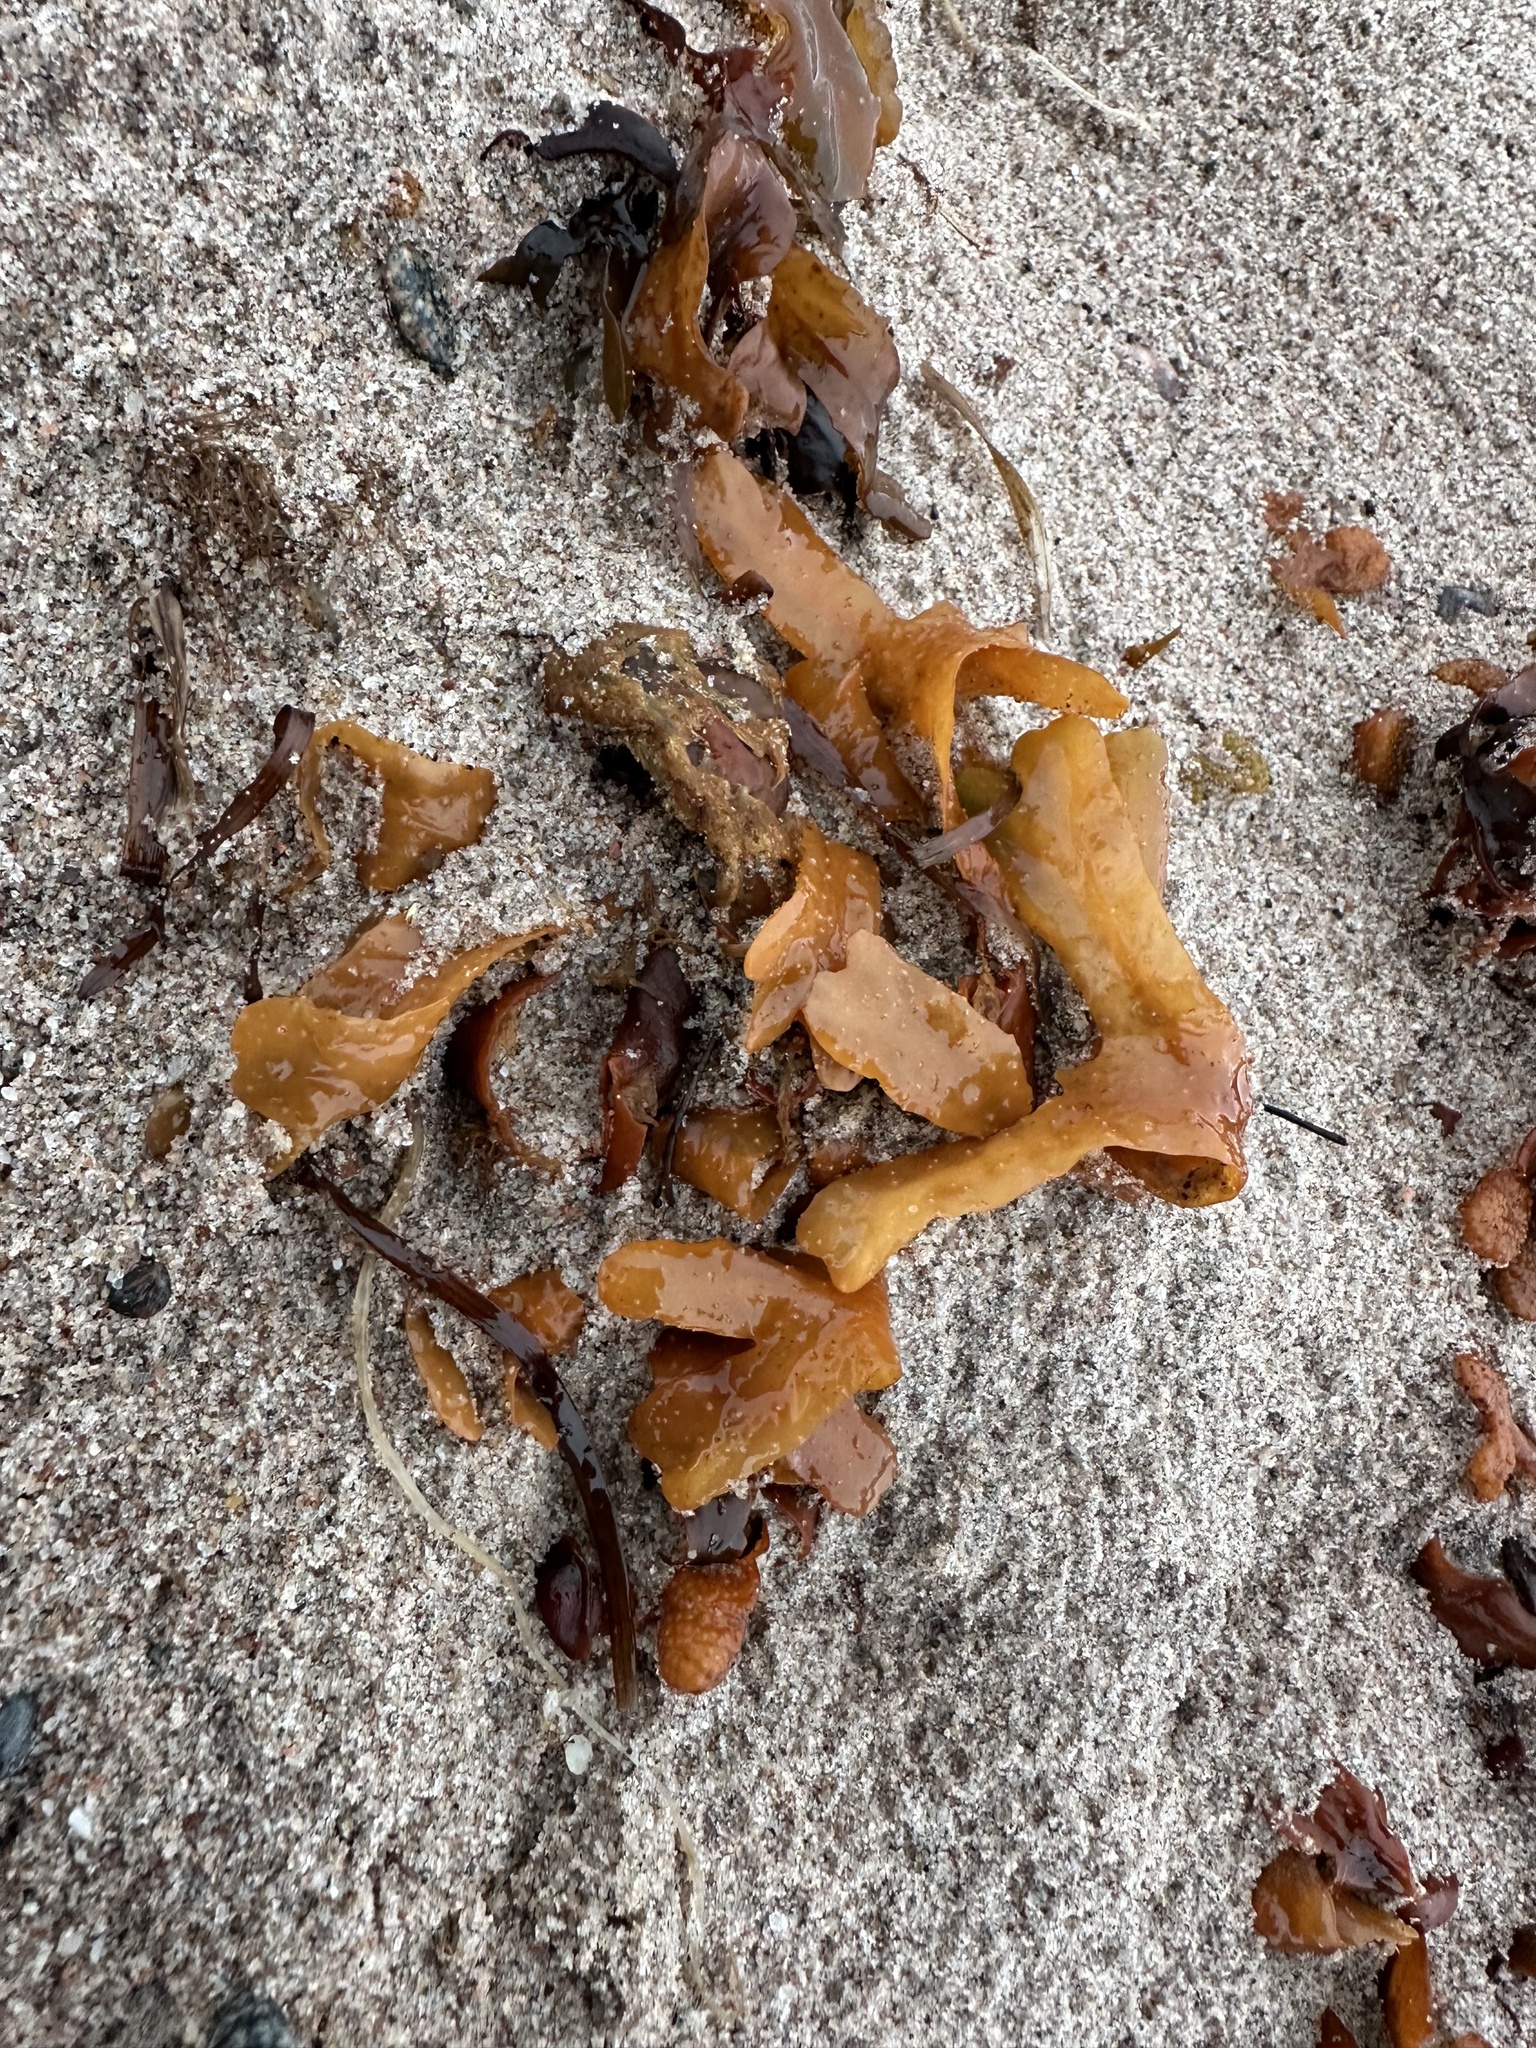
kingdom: Chromista
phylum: Ochrophyta
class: Phaeophyceae
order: Fucales
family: Fucaceae
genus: Fucus
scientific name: Fucus vesiculosus
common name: Bladder wrack
